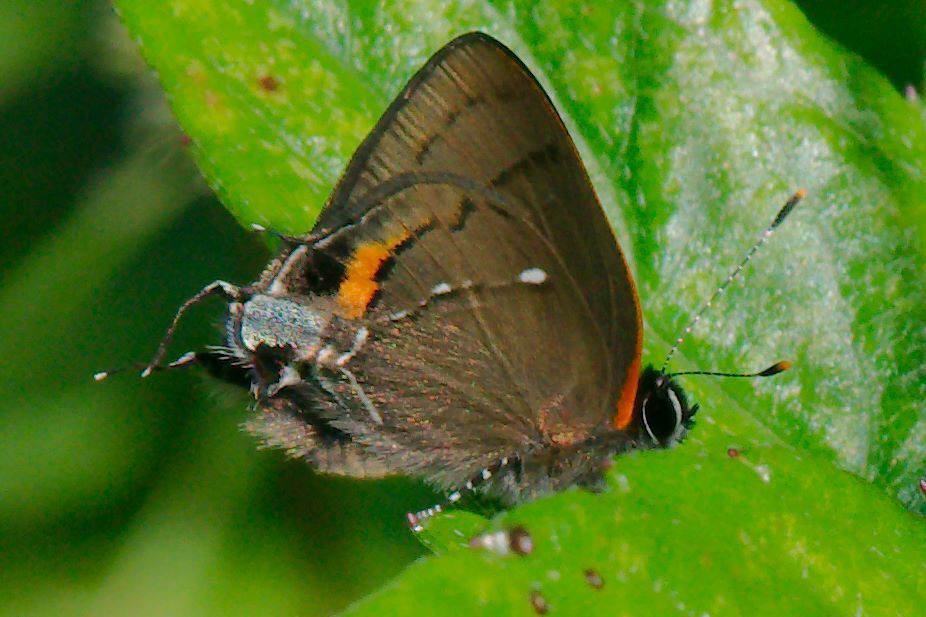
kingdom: Animalia
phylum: Arthropoda
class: Insecta
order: Lepidoptera
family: Lycaenidae
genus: Thecla
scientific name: Thecla angelia
